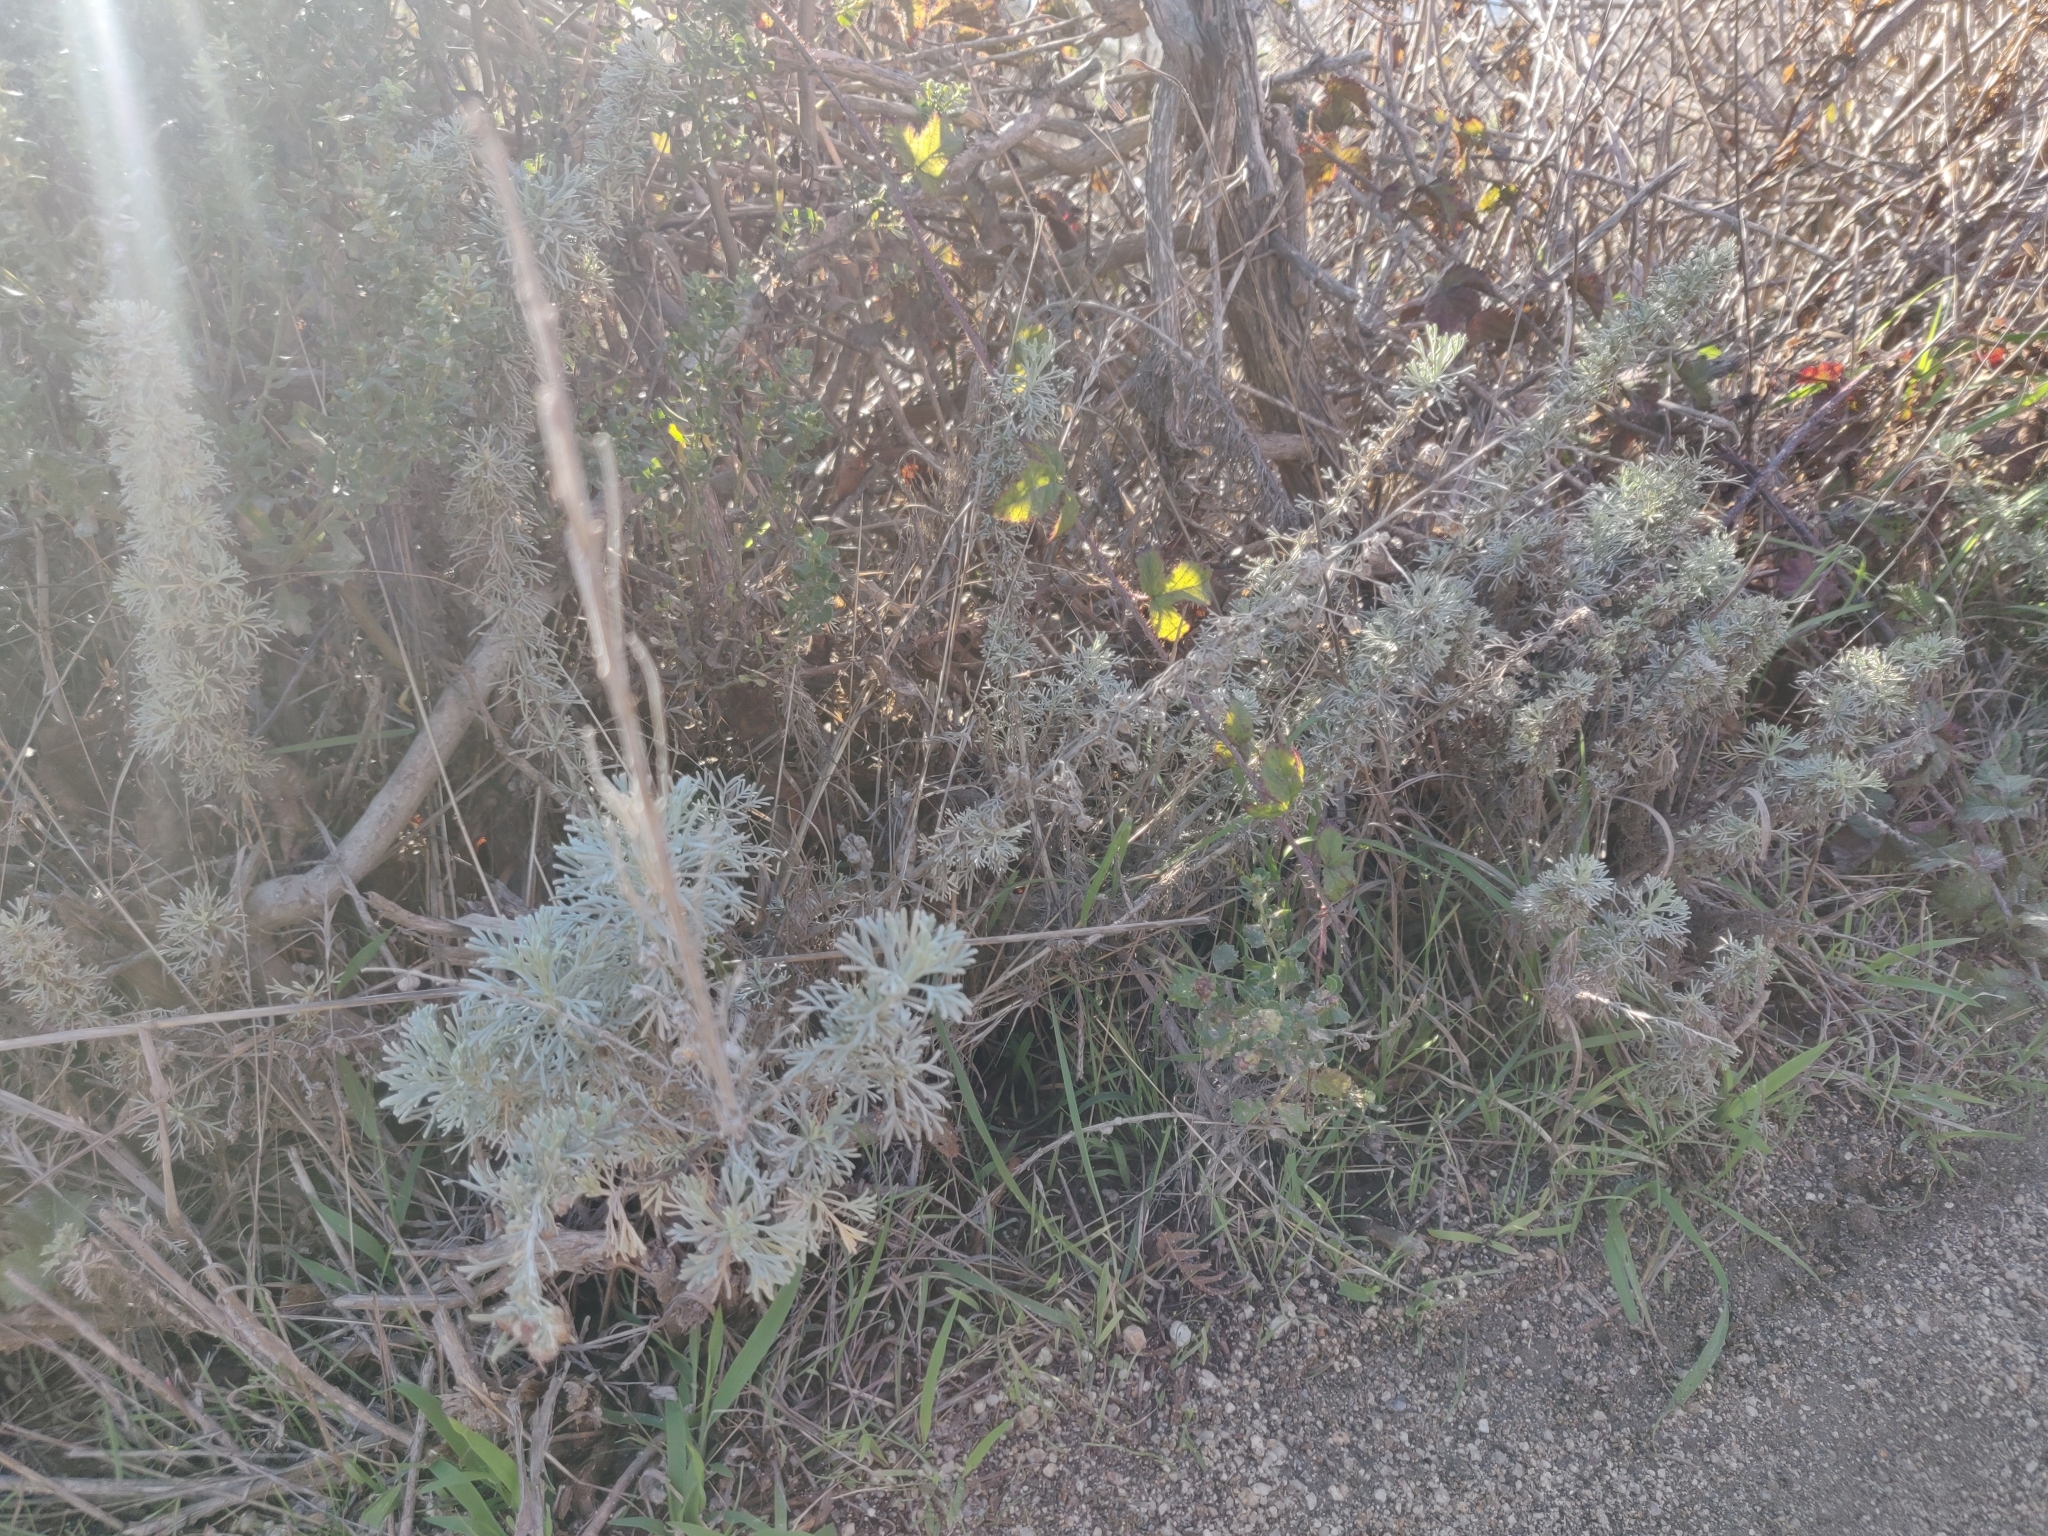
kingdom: Plantae
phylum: Tracheophyta
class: Magnoliopsida
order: Asterales
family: Asteraceae
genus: Artemisia
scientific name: Artemisia californica
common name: California sagebrush
